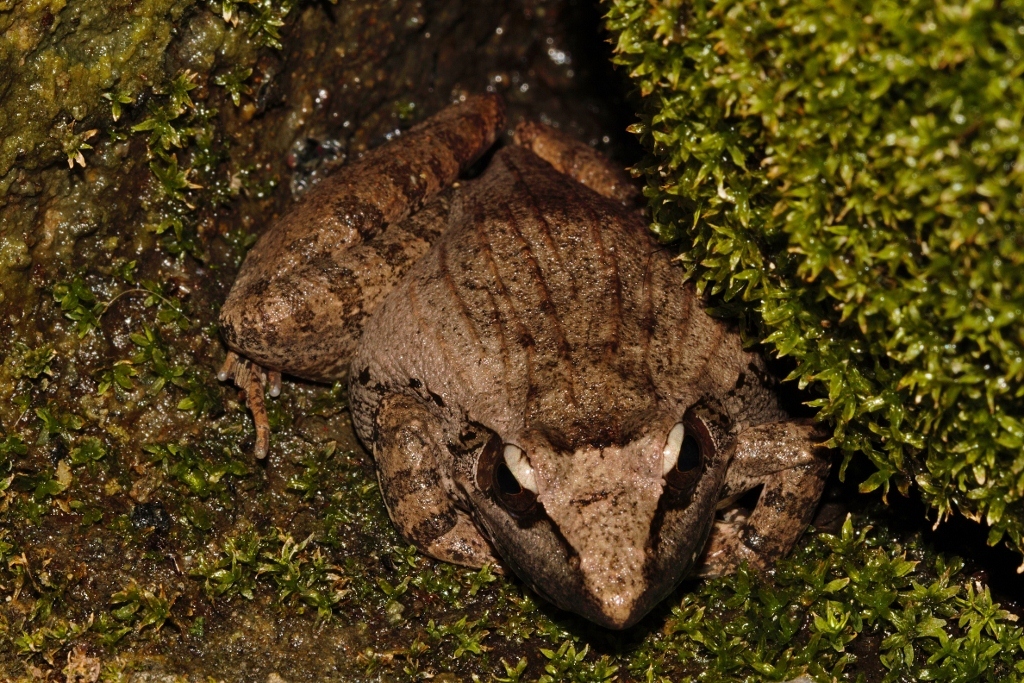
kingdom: Animalia
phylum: Chordata
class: Amphibia
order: Anura
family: Ptychadenidae
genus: Ptychadena
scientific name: Ptychadena anchietae
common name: Anchieta's ridged frog
